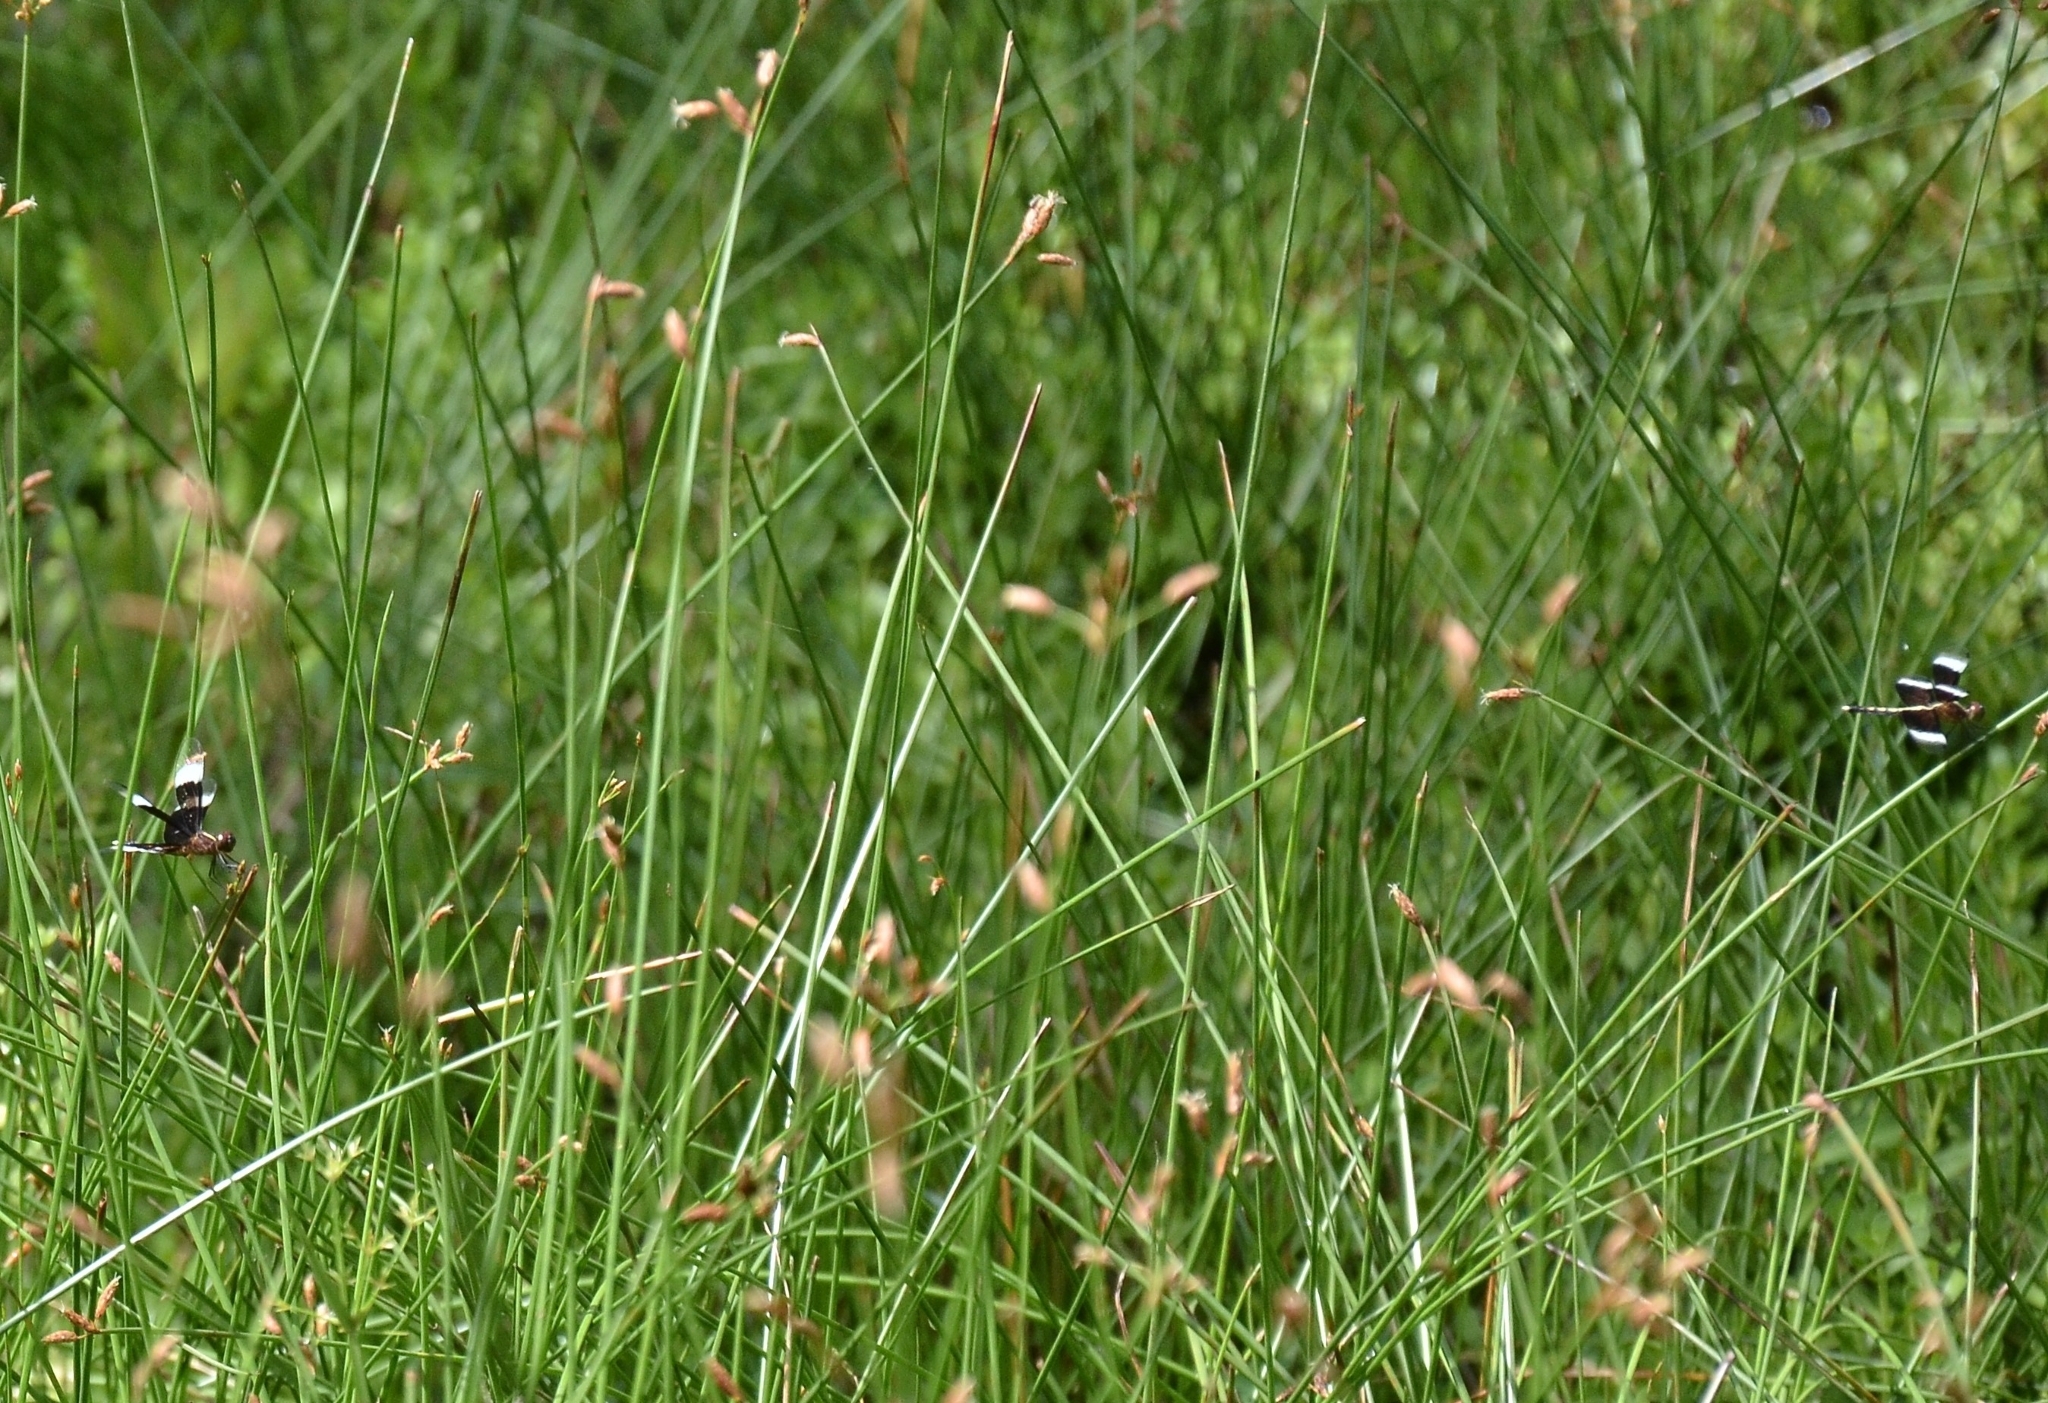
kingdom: Animalia
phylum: Arthropoda
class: Insecta
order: Odonata
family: Libellulidae
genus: Neurothemis
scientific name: Neurothemis tullia
